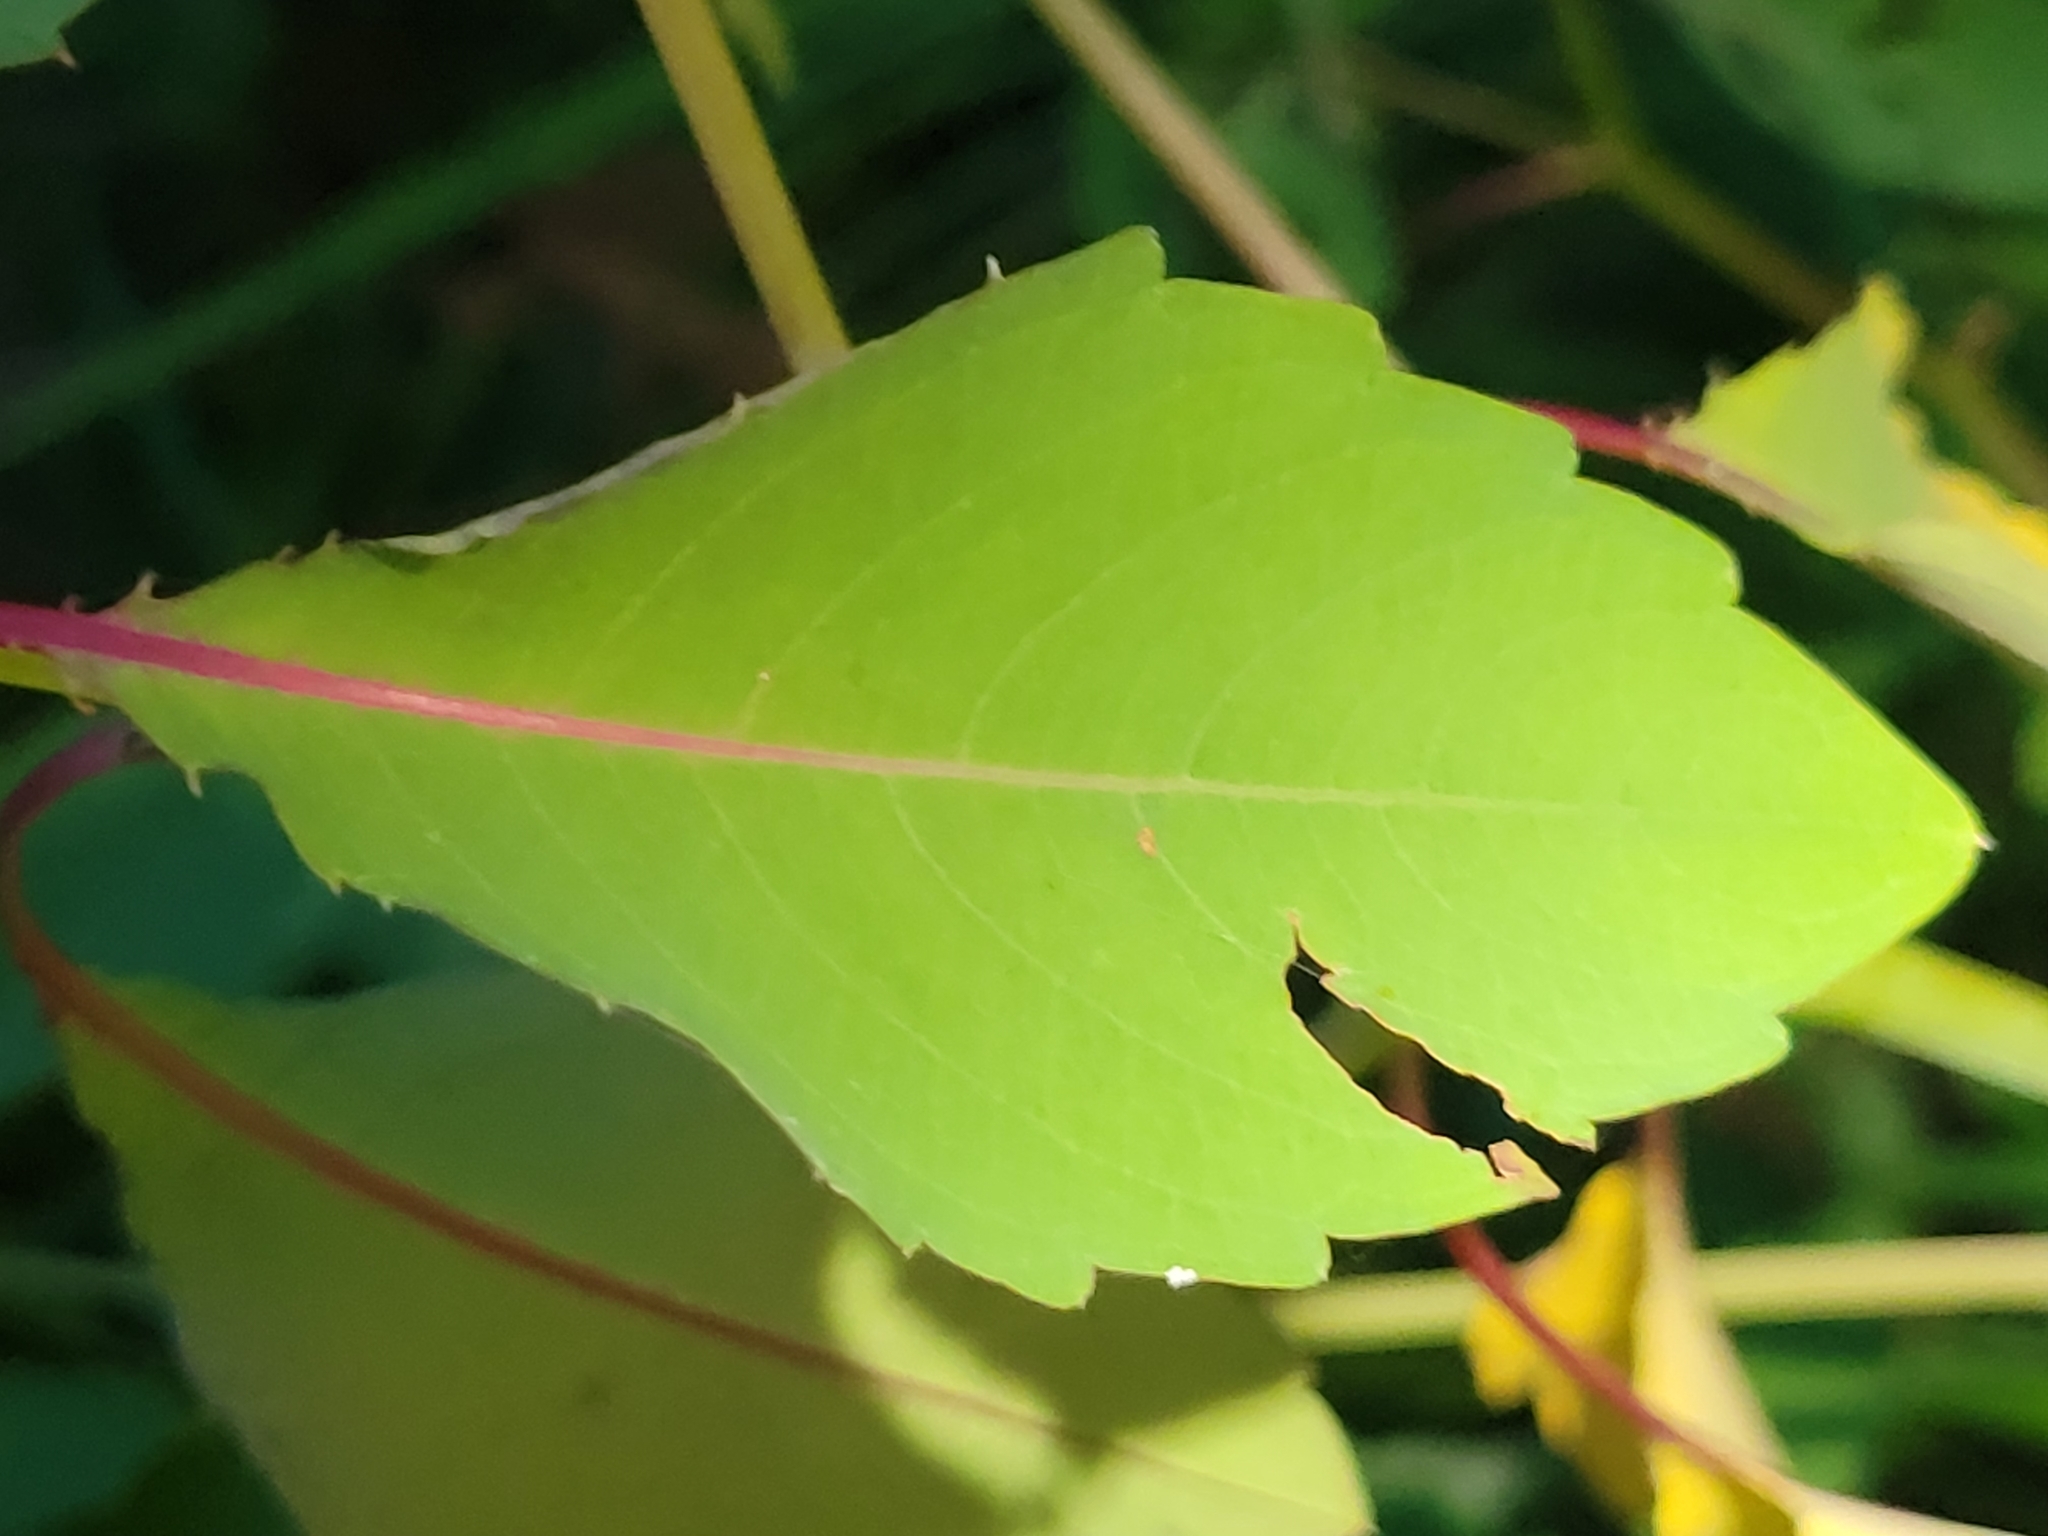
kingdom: Plantae
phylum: Tracheophyta
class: Magnoliopsida
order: Ericales
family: Balsaminaceae
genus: Impatiens
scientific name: Impatiens capensis
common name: Orange balsam
